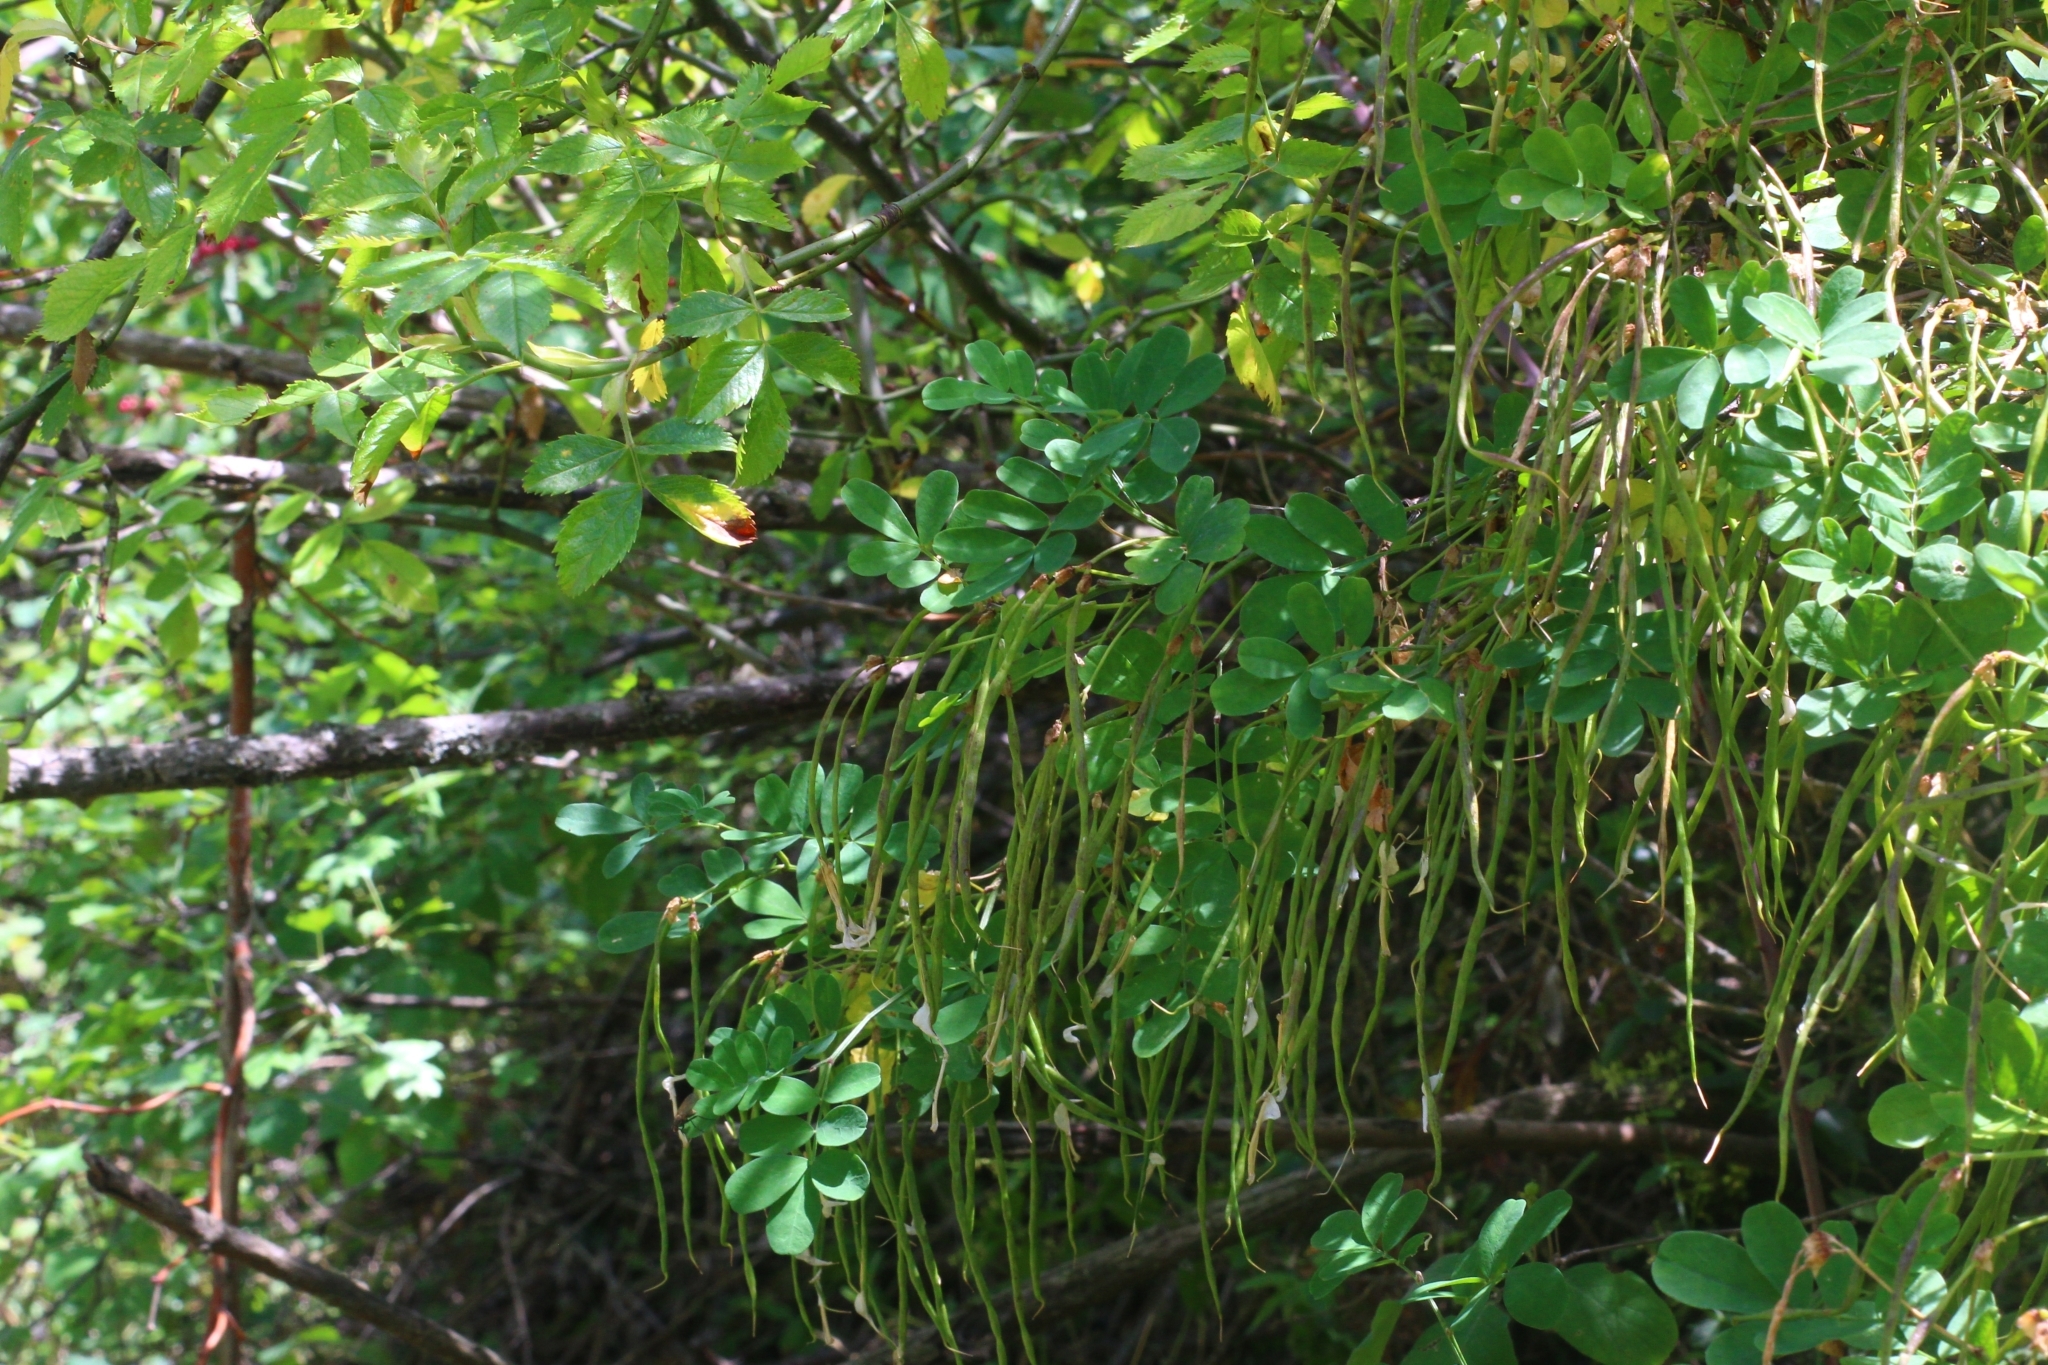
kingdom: Plantae
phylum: Tracheophyta
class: Magnoliopsida
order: Fabales
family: Fabaceae
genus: Hippocrepis
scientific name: Hippocrepis emerus
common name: Scorpion senna
